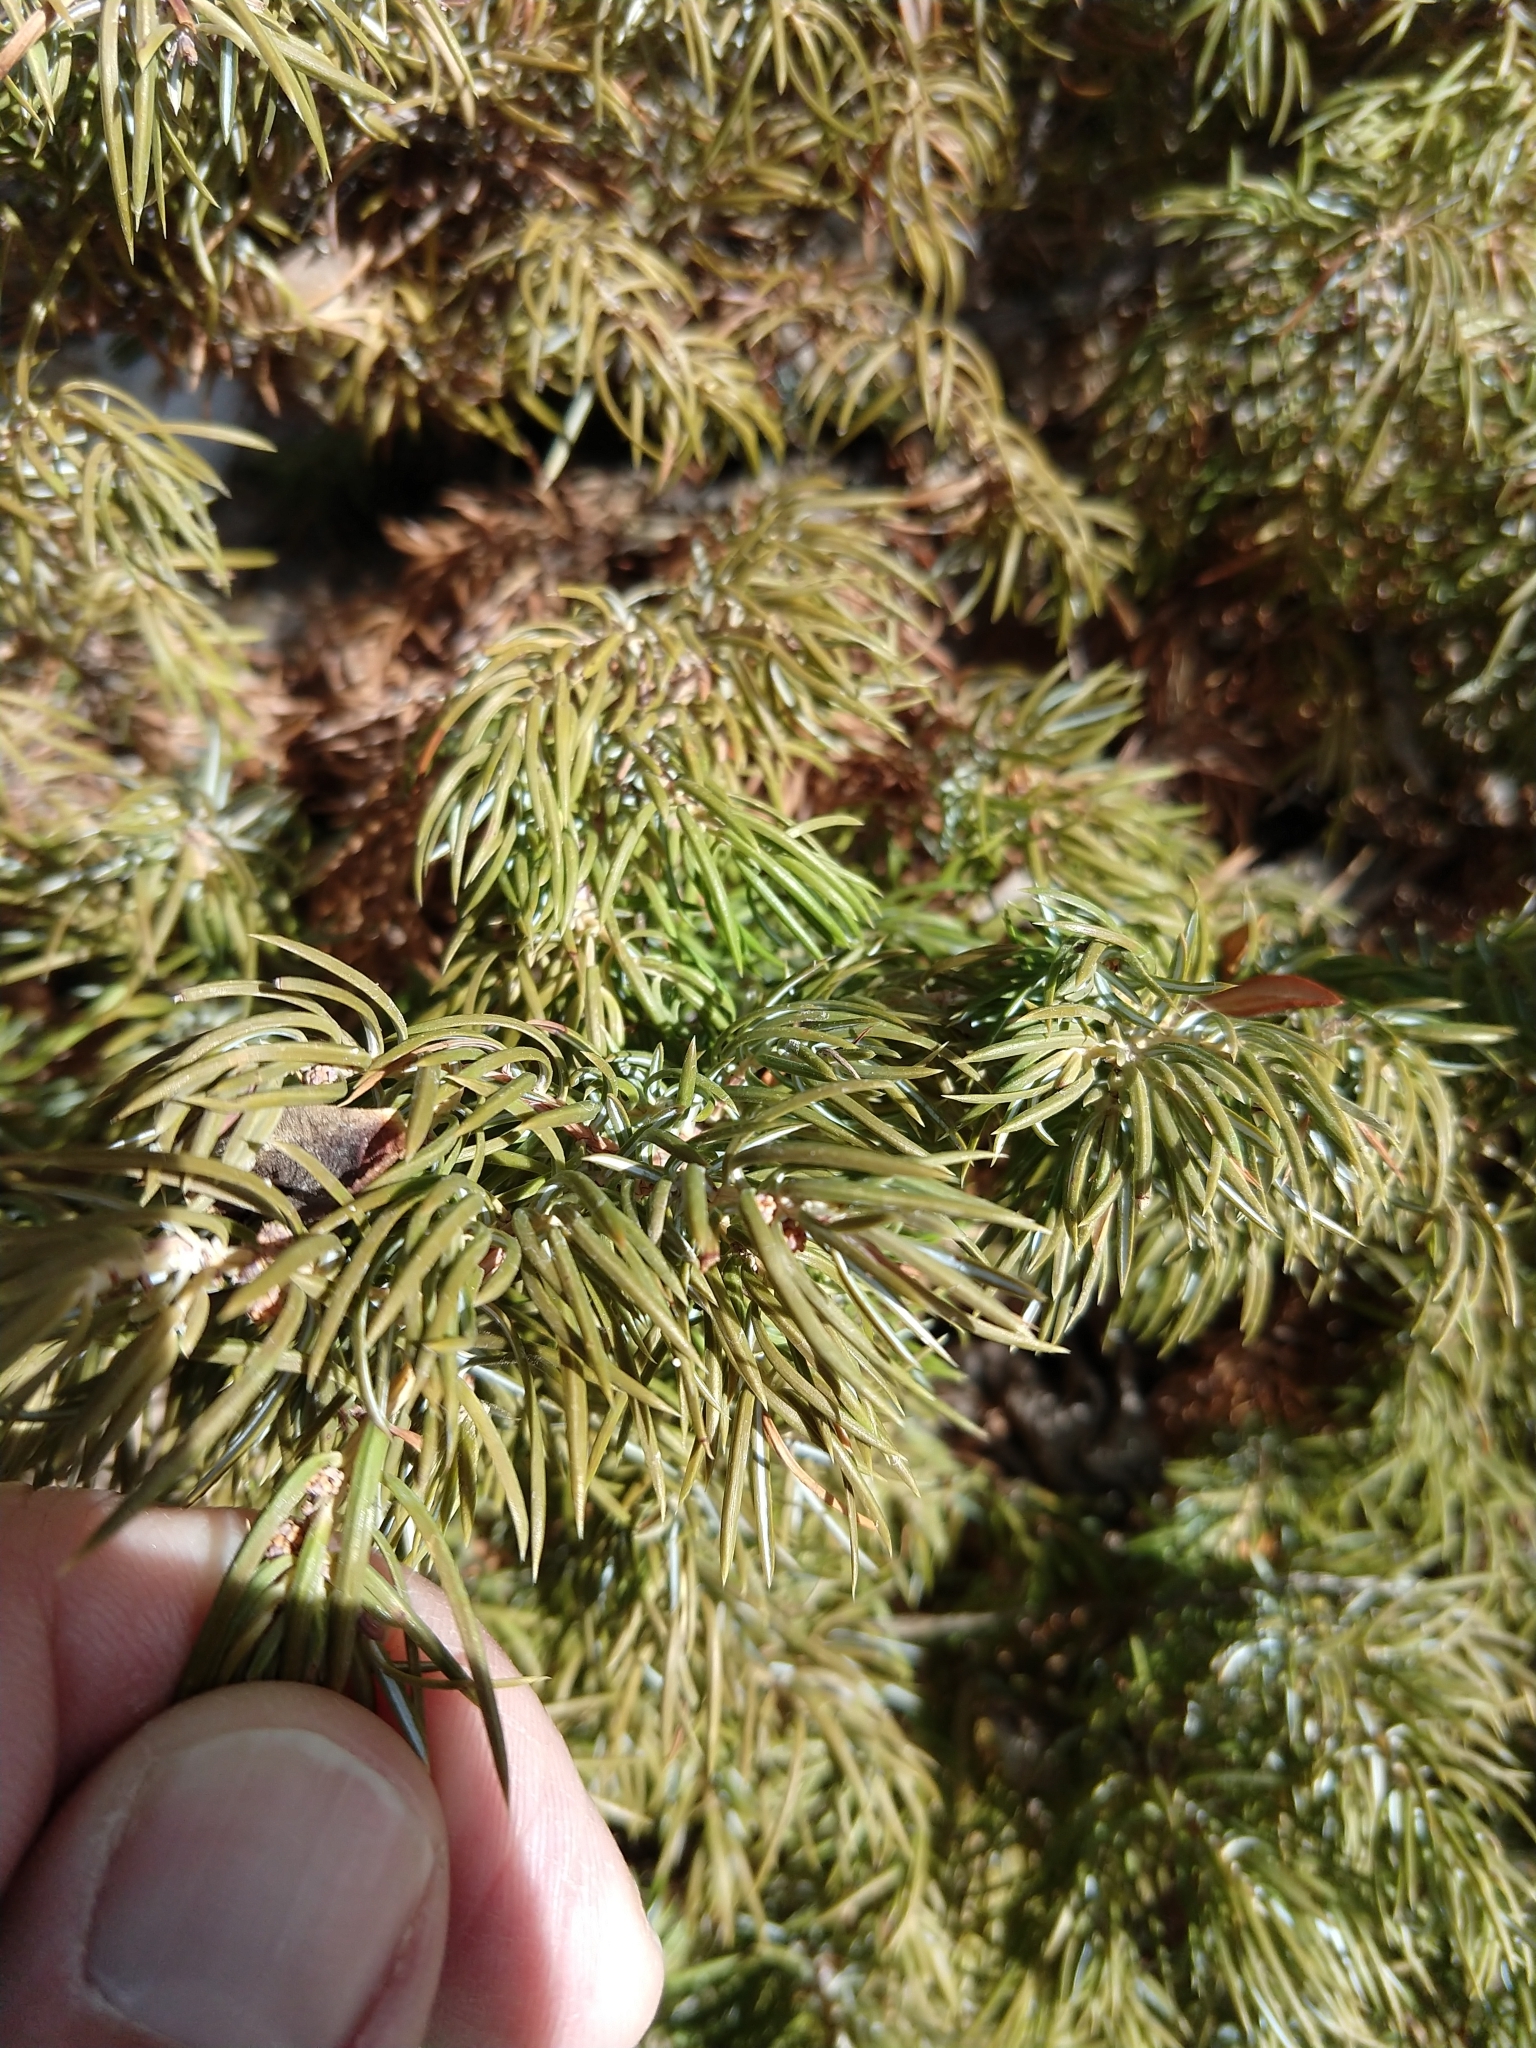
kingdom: Plantae
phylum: Tracheophyta
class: Pinopsida
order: Pinales
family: Cupressaceae
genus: Juniperus
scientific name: Juniperus communis
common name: Common juniper
